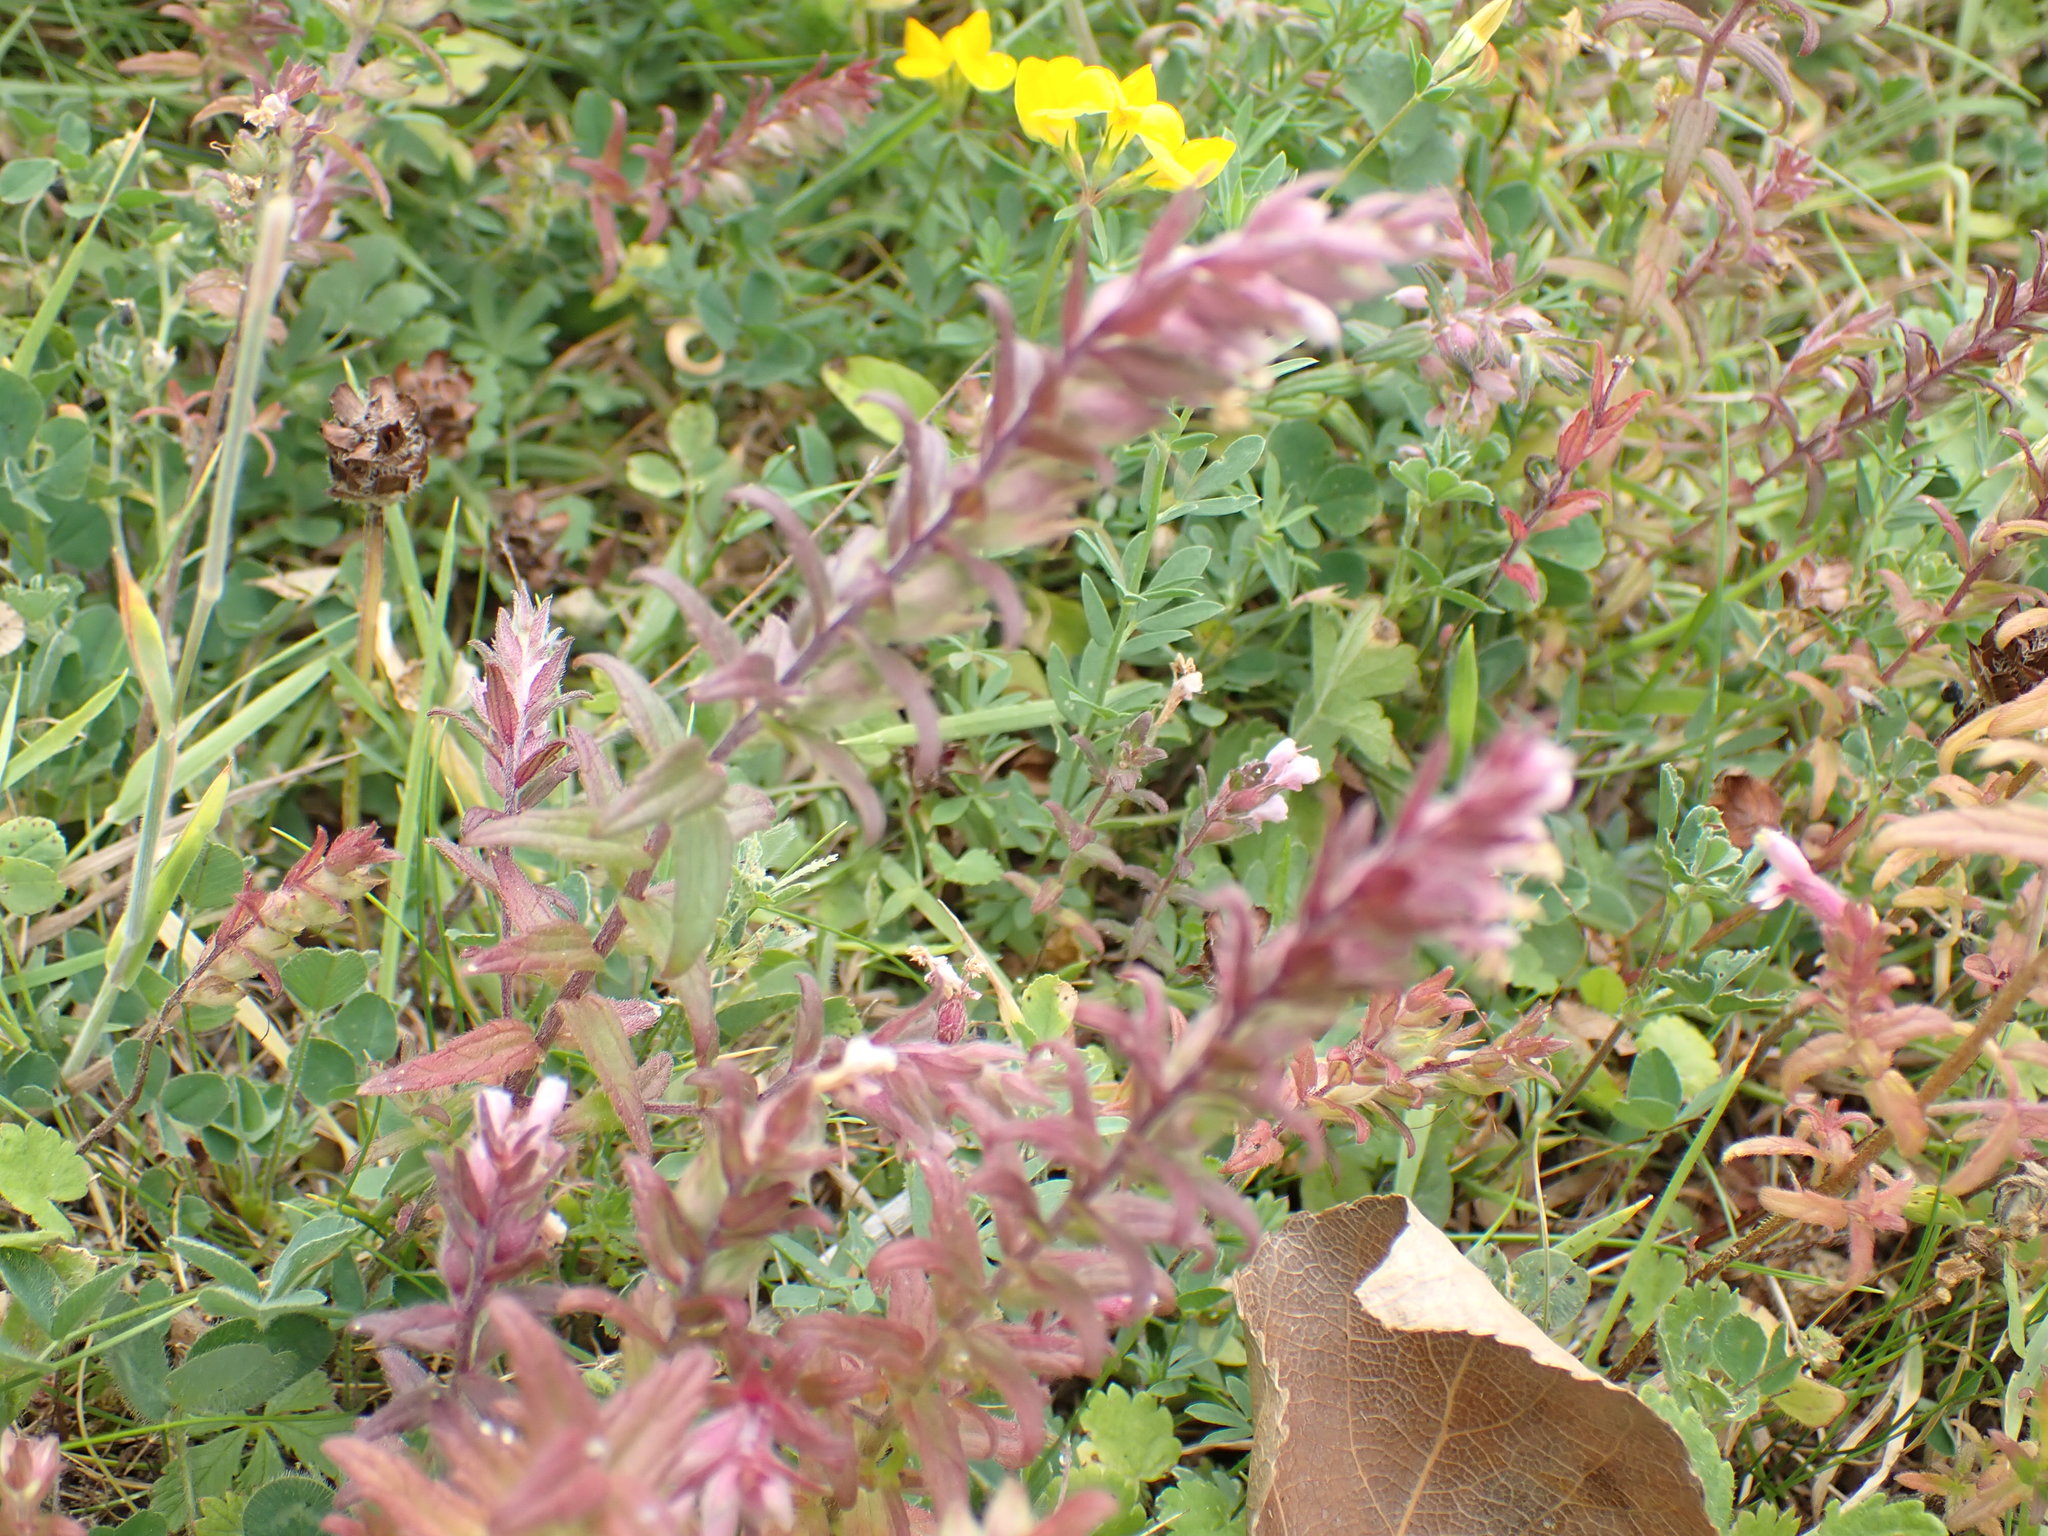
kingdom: Plantae
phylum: Tracheophyta
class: Magnoliopsida
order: Lamiales
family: Orobanchaceae
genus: Odontites
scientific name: Odontites vulgaris
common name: Broomrape
